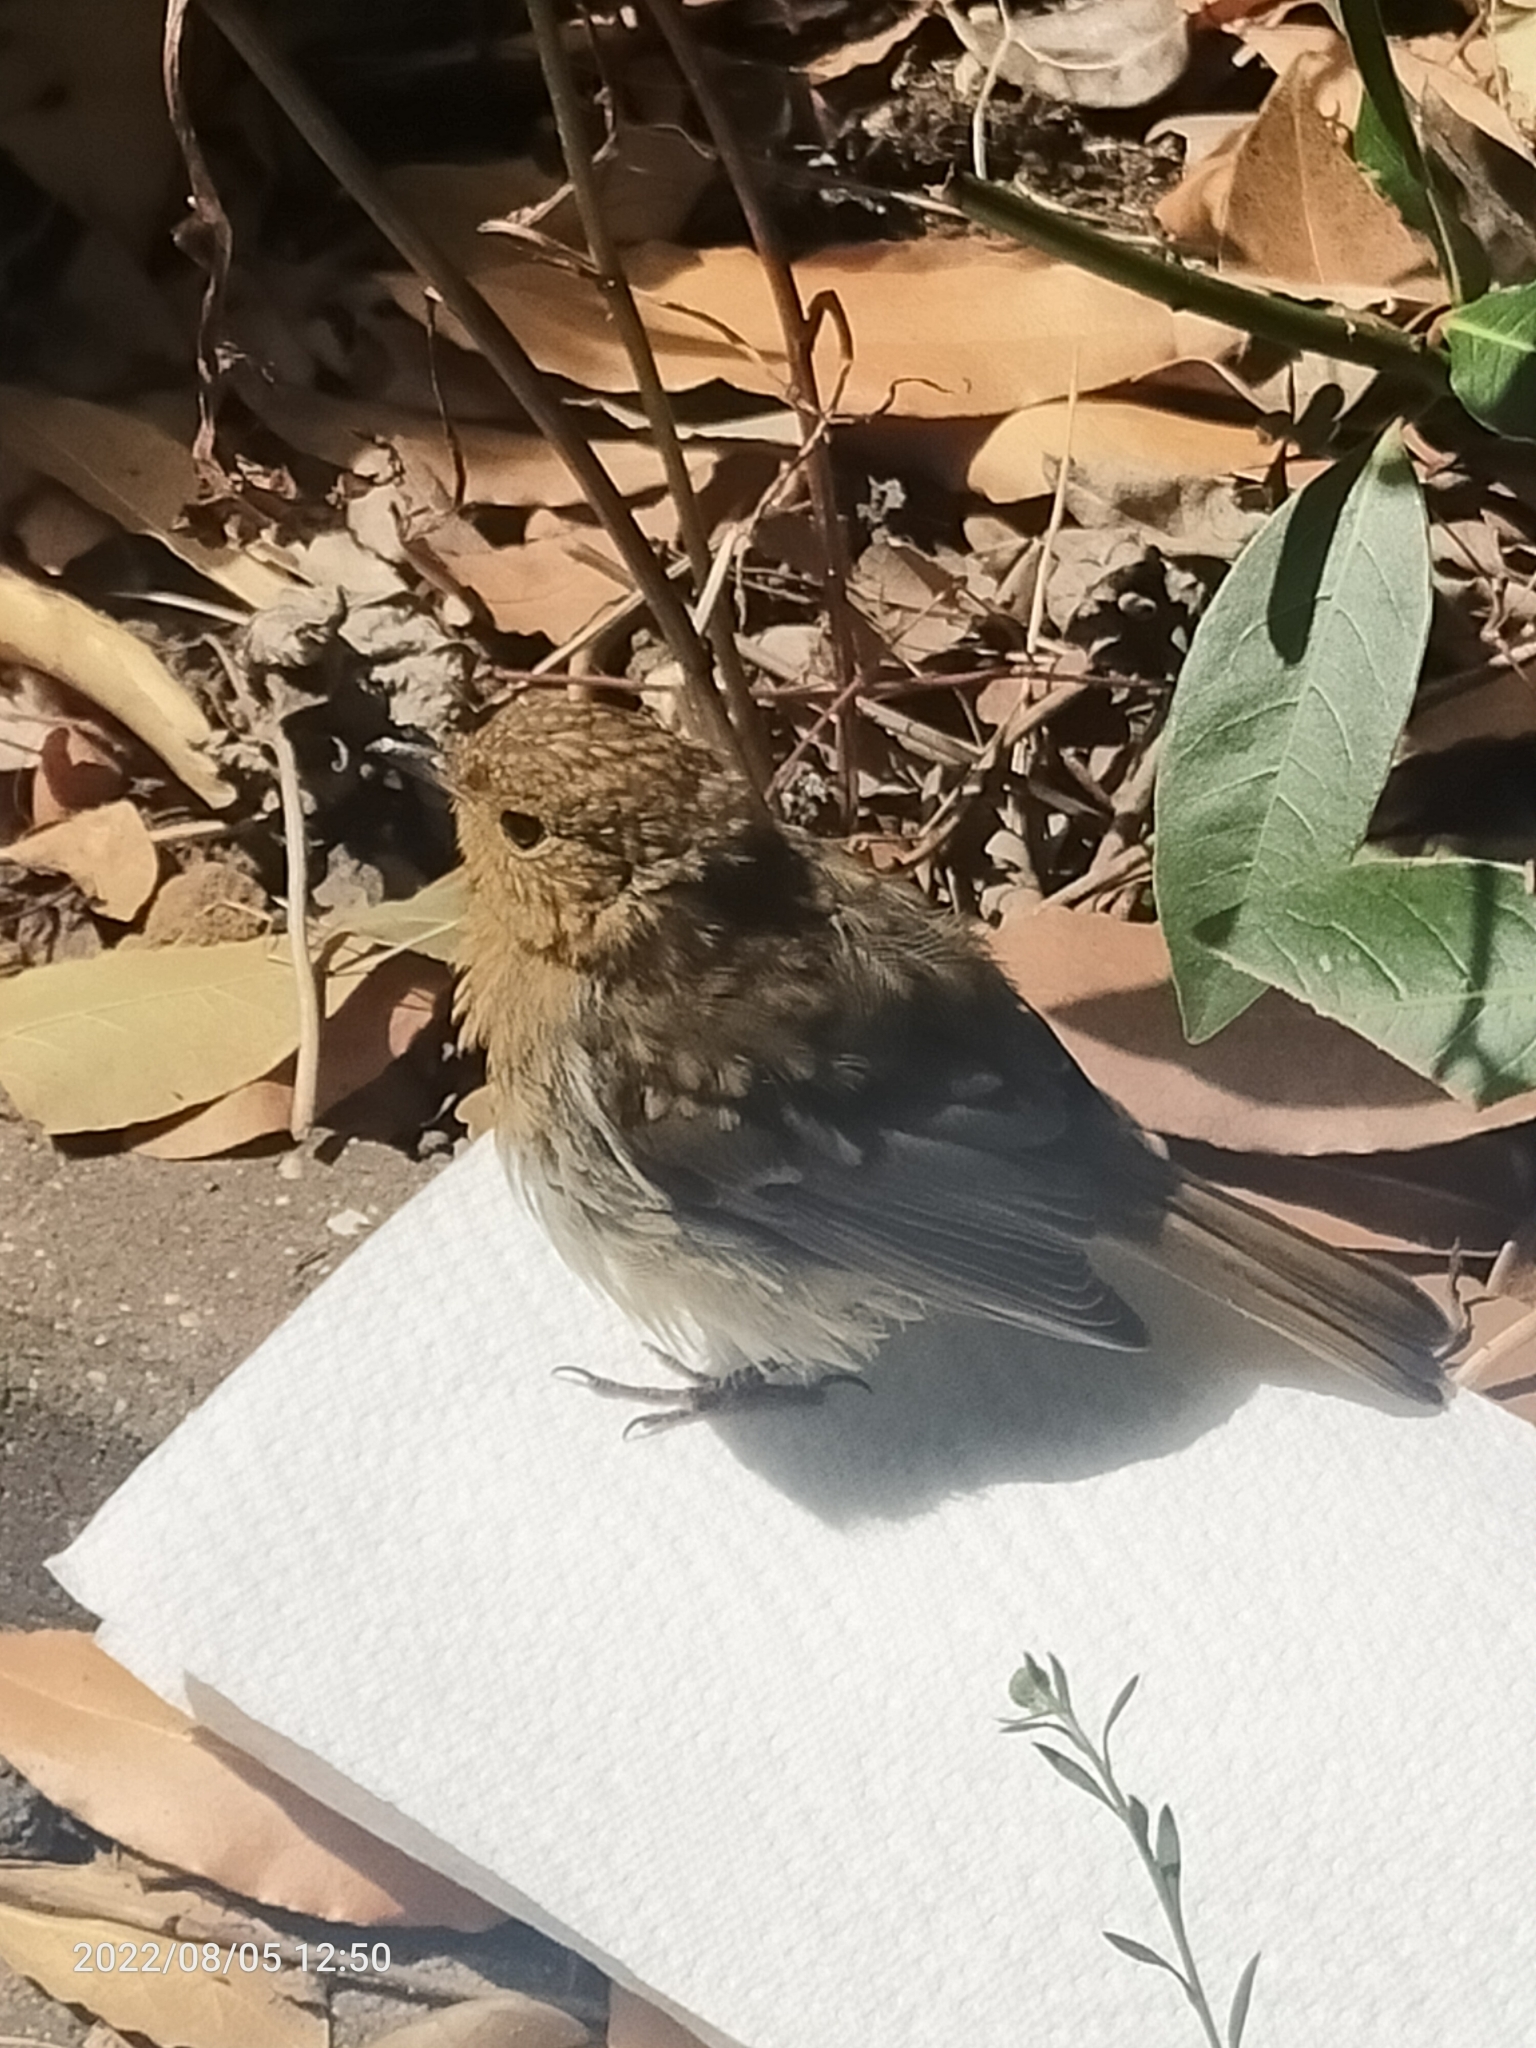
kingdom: Animalia
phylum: Chordata
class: Aves
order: Passeriformes
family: Muscicapidae
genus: Erithacus
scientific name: Erithacus rubecula
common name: European robin
